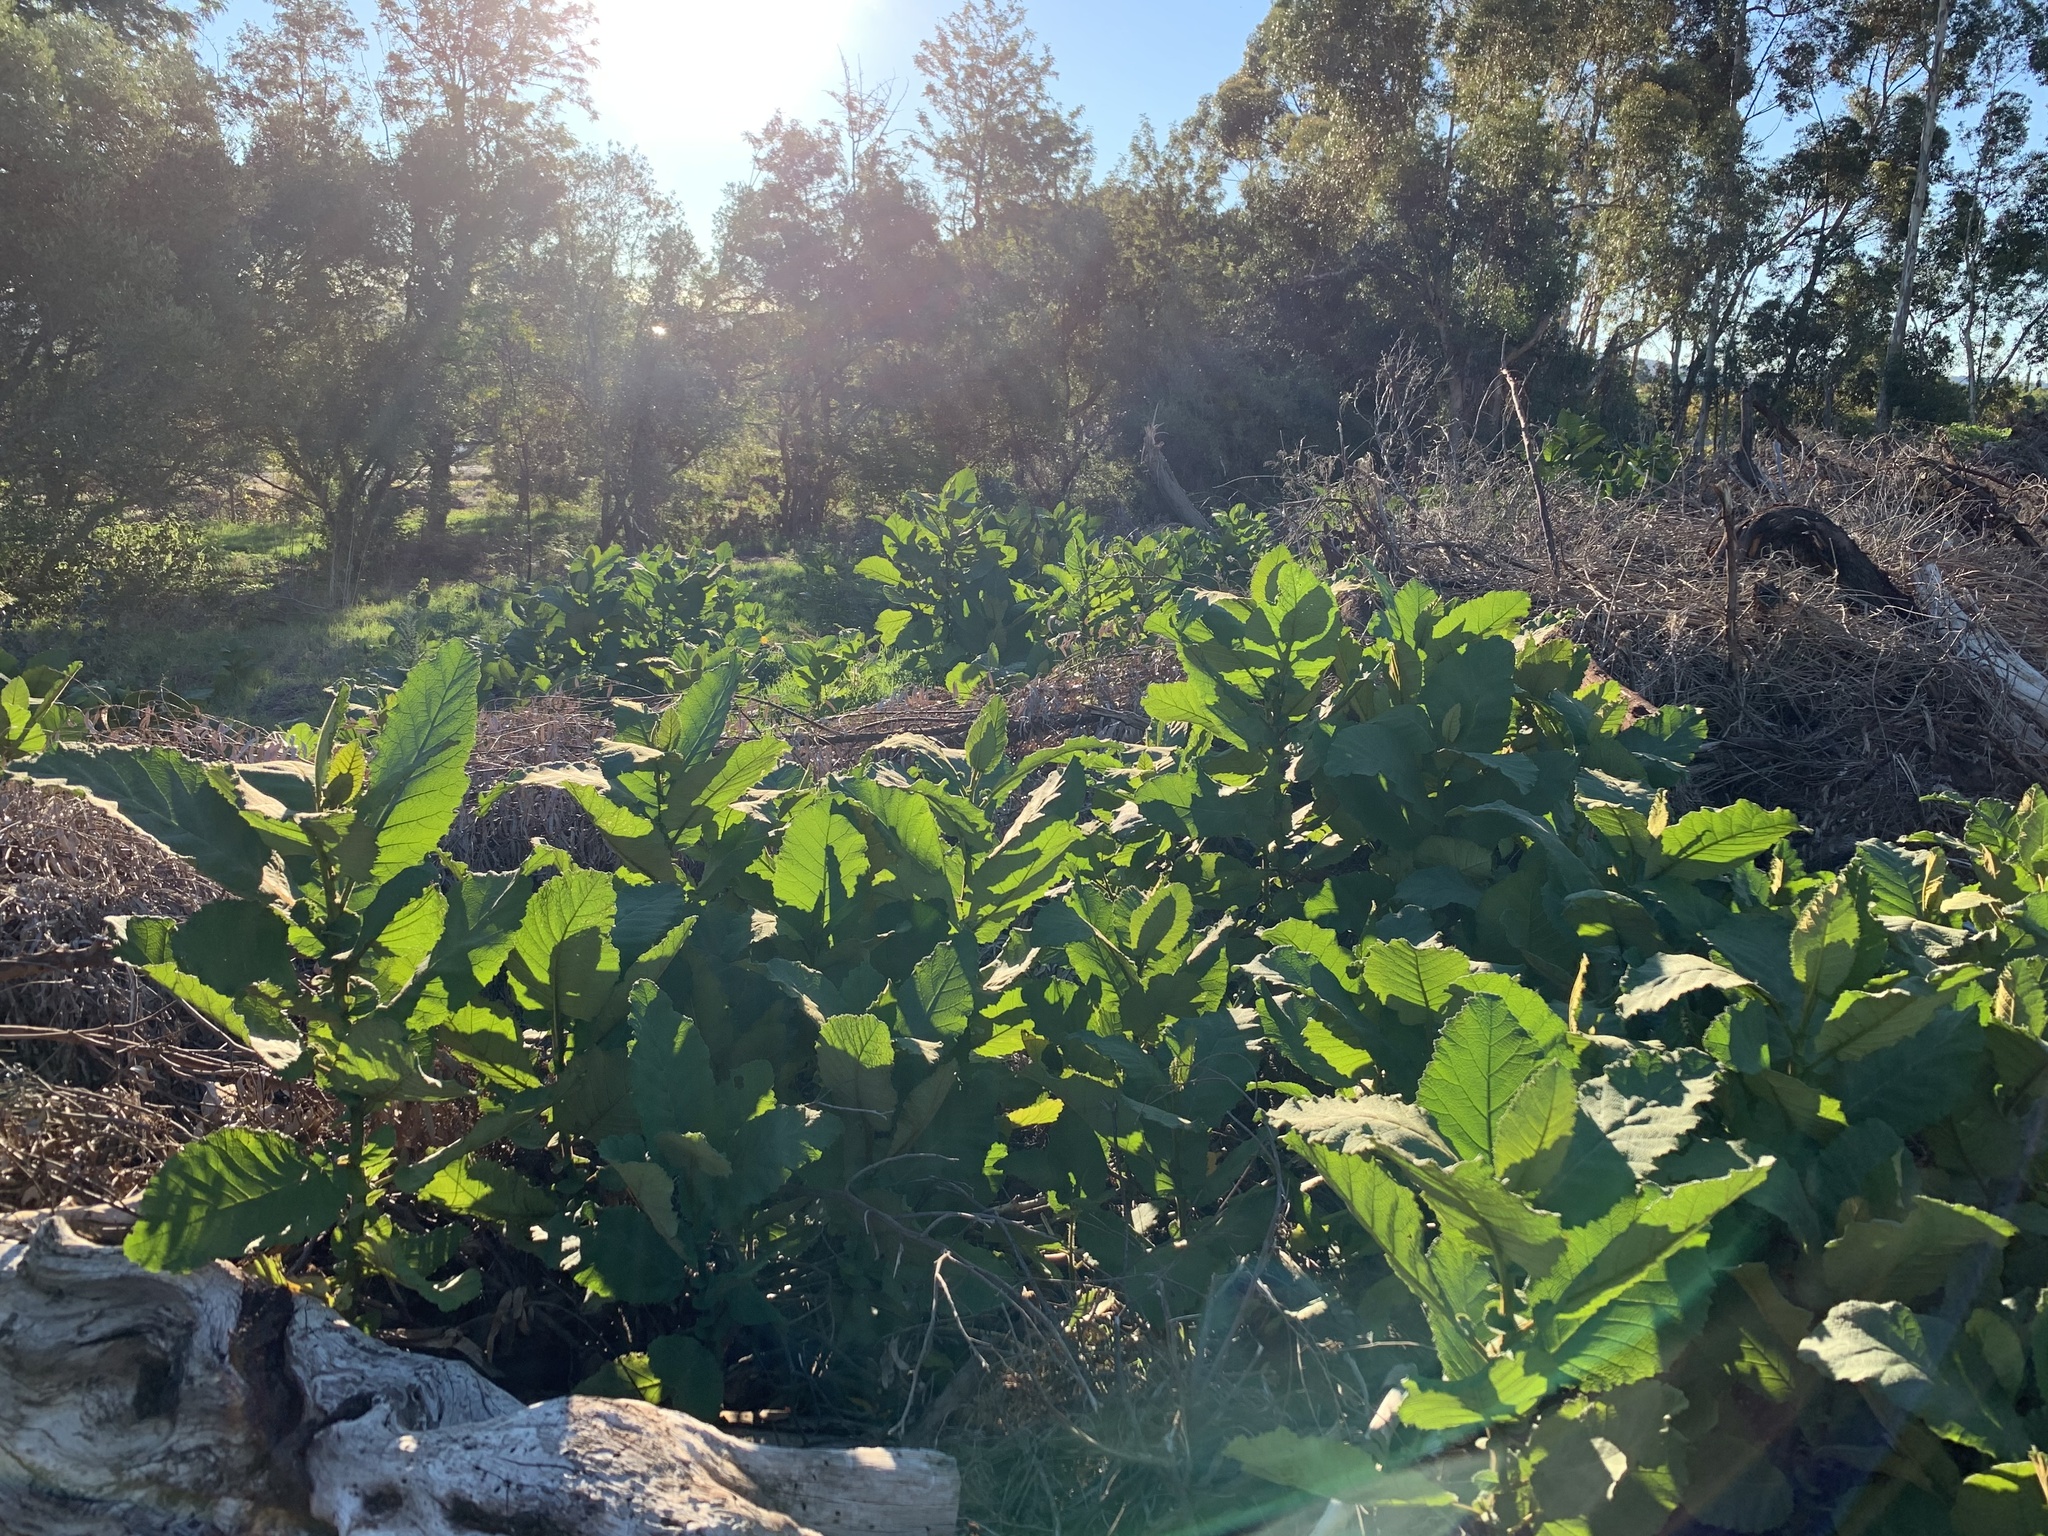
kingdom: Plantae
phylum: Tracheophyta
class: Magnoliopsida
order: Boraginales
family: Namaceae
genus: Wigandia
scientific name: Wigandia urens
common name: Caracus wigandia
